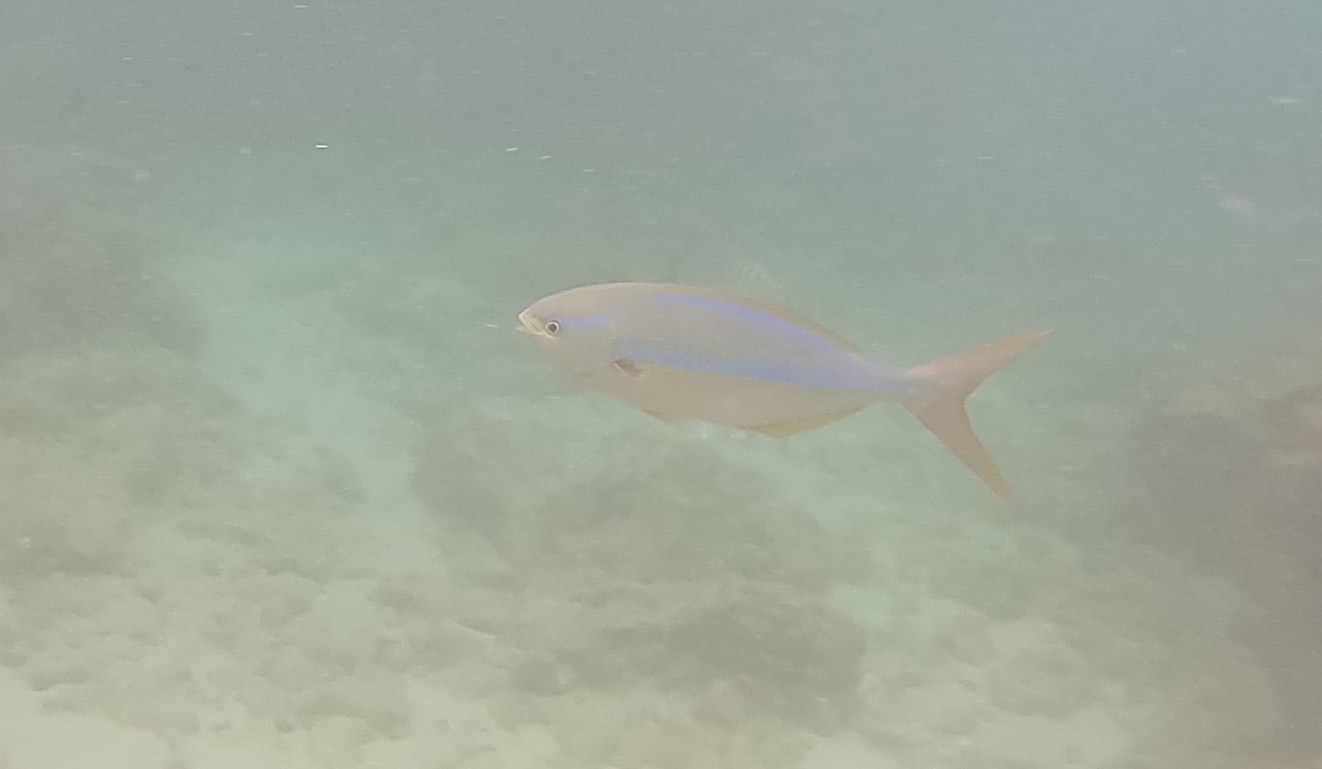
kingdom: Animalia
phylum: Chordata
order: Perciformes
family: Kyphosidae
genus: Kyphosus
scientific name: Kyphosus ocyurus
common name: Bluestriped chub
